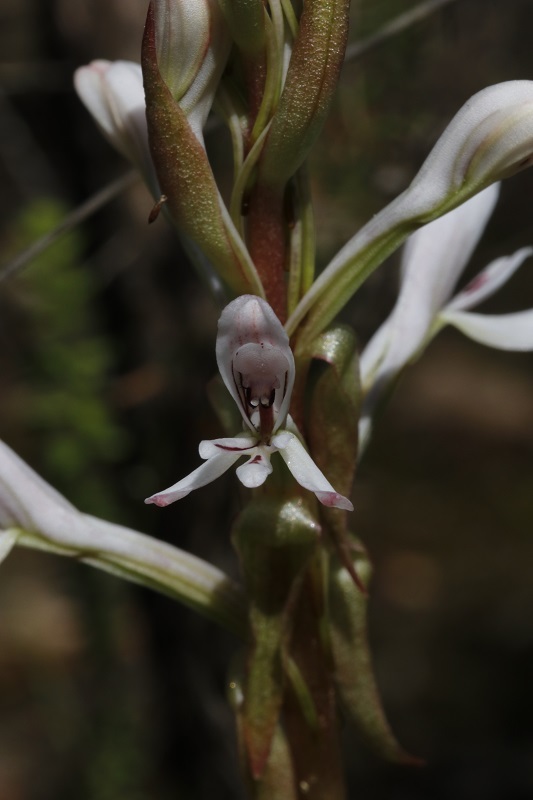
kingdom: Plantae
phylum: Tracheophyta
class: Liliopsida
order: Asparagales
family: Orchidaceae
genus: Satyrium
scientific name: Satyrium longicolle
